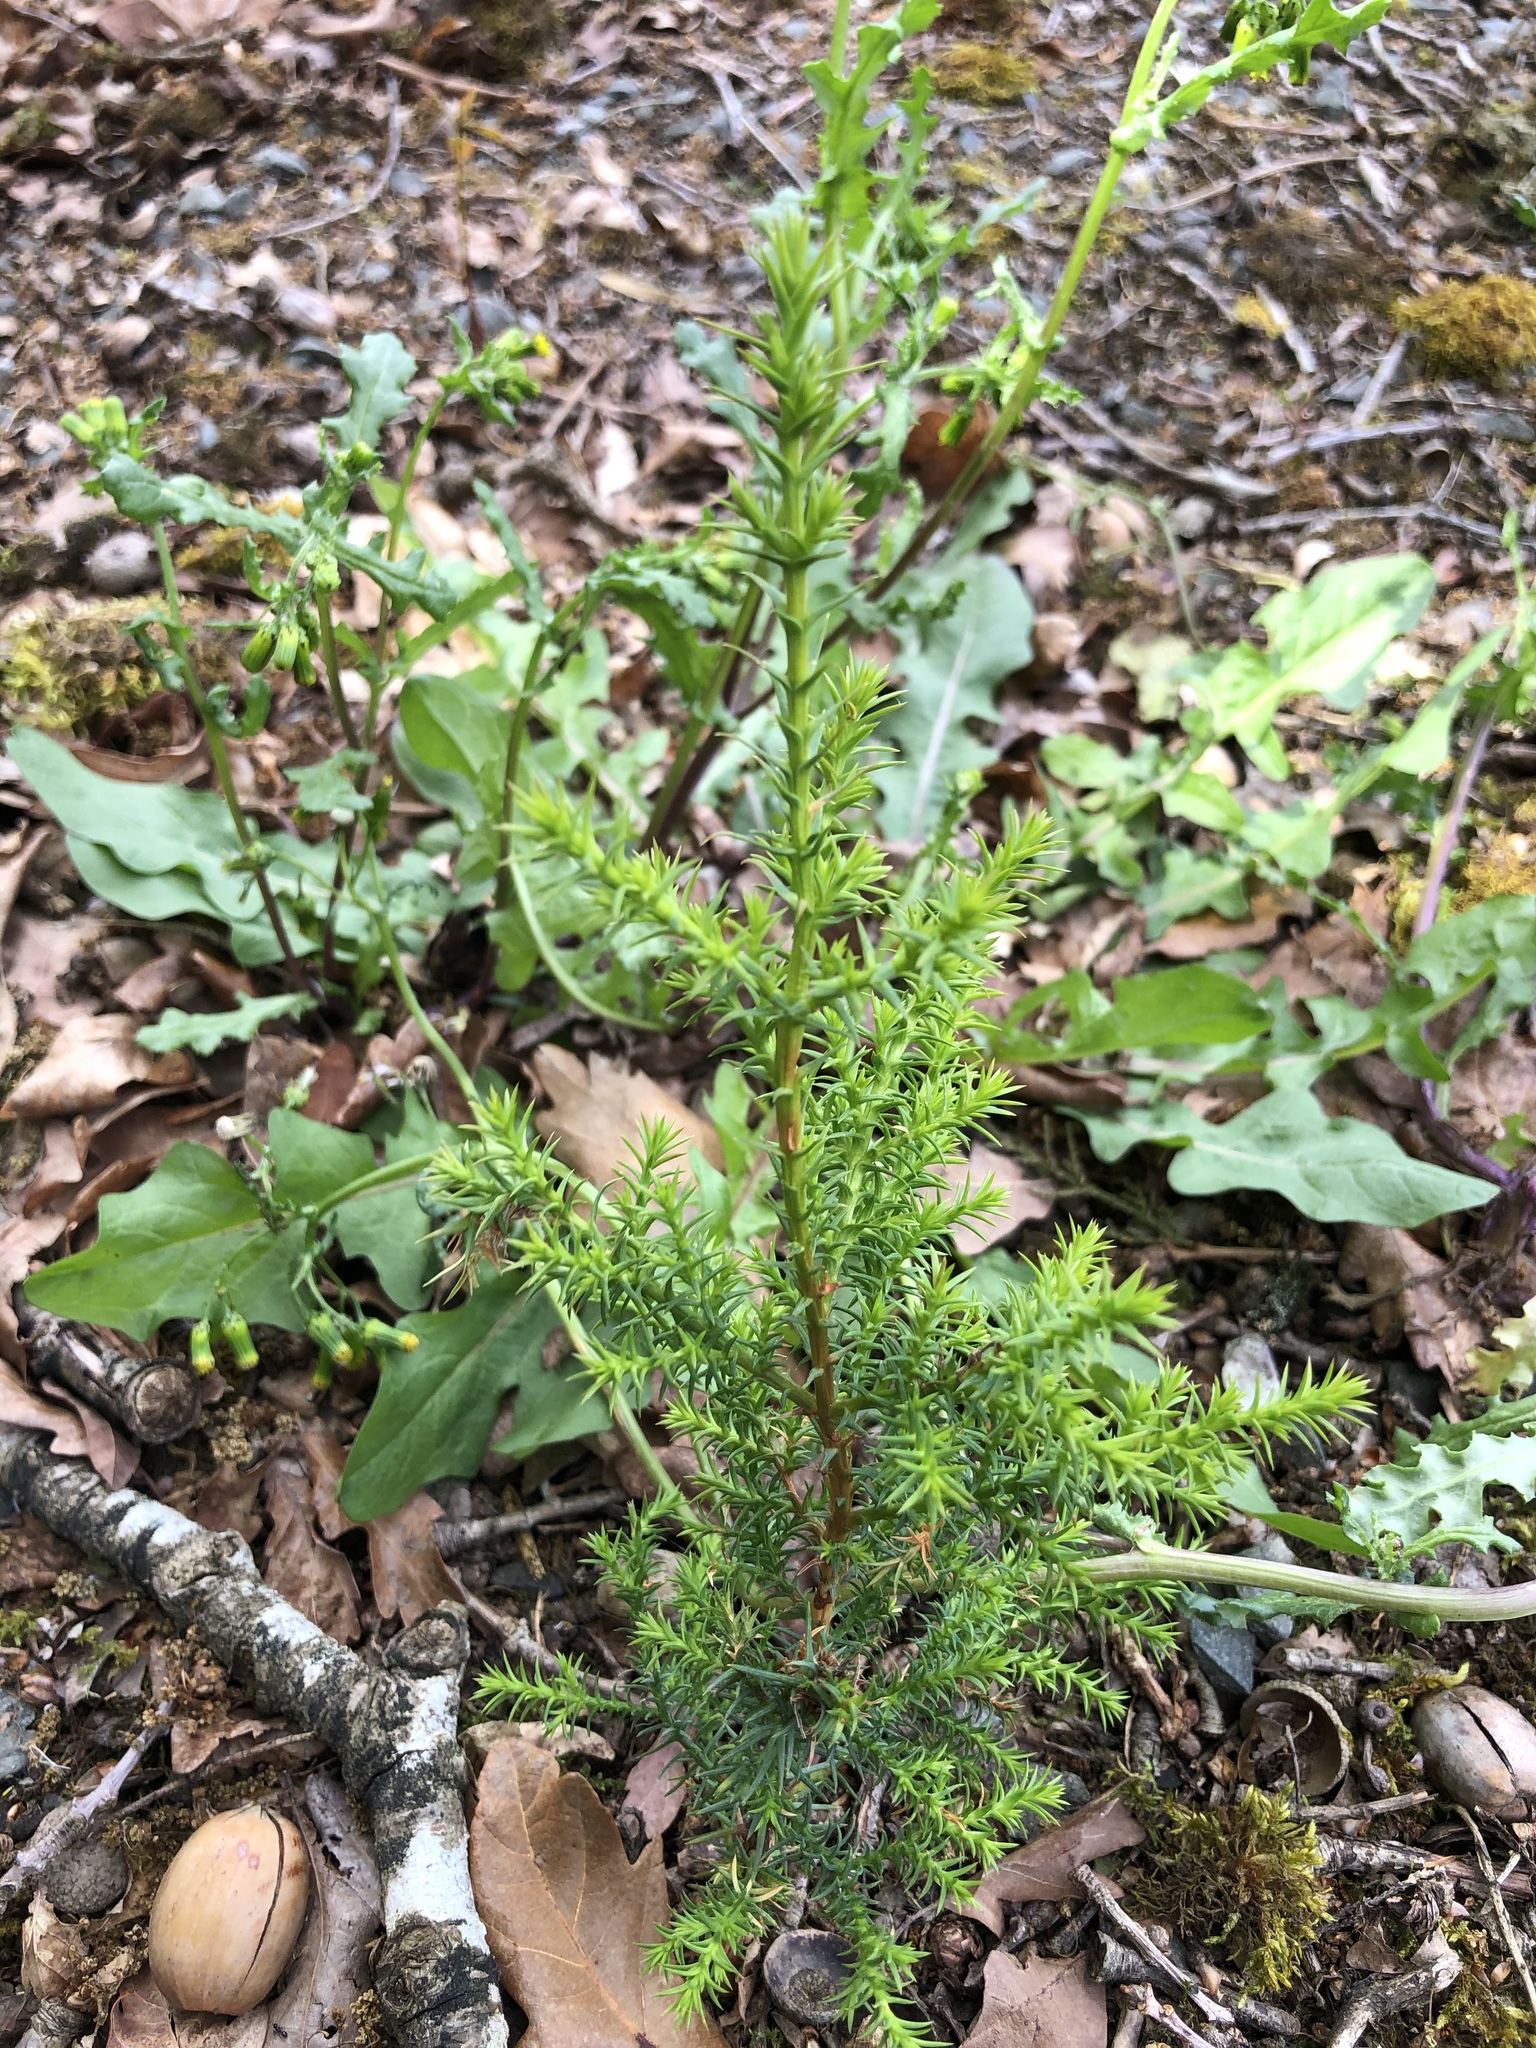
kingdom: Plantae
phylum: Tracheophyta
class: Pinopsida
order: Pinales
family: Cupressaceae
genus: Cupressus
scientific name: Cupressus macrocarpa
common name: Monterey cypress
